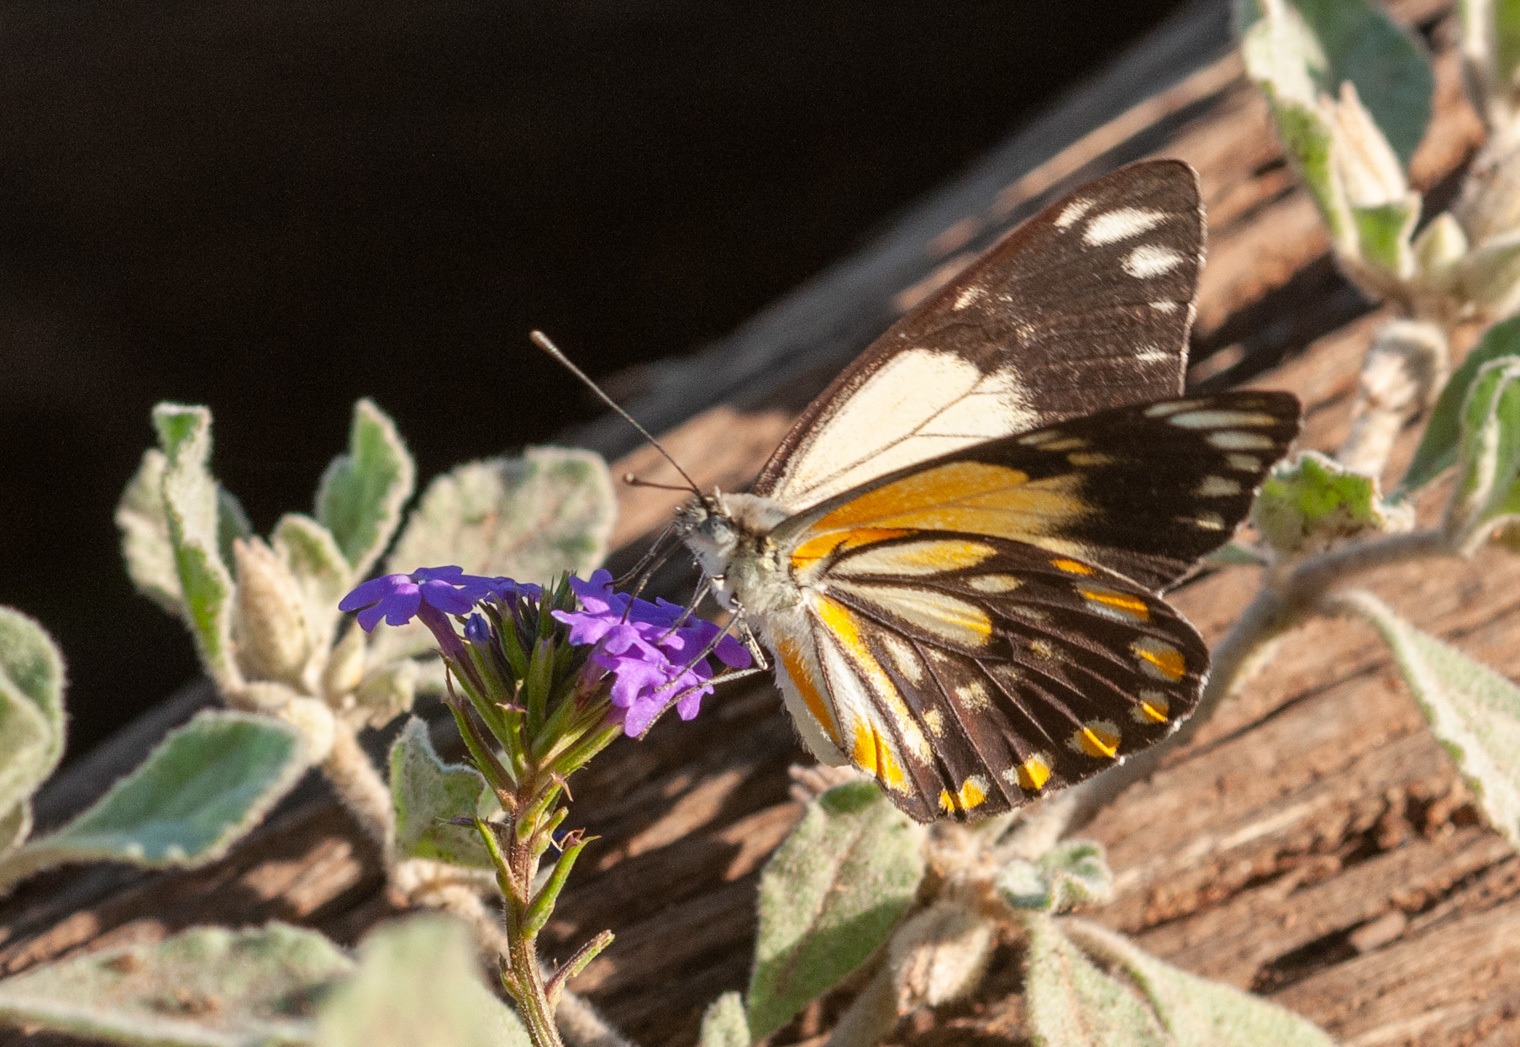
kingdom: Animalia
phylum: Arthropoda
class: Insecta
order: Lepidoptera
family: Pieridae
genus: Belenois
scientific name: Belenois java
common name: Caper white
